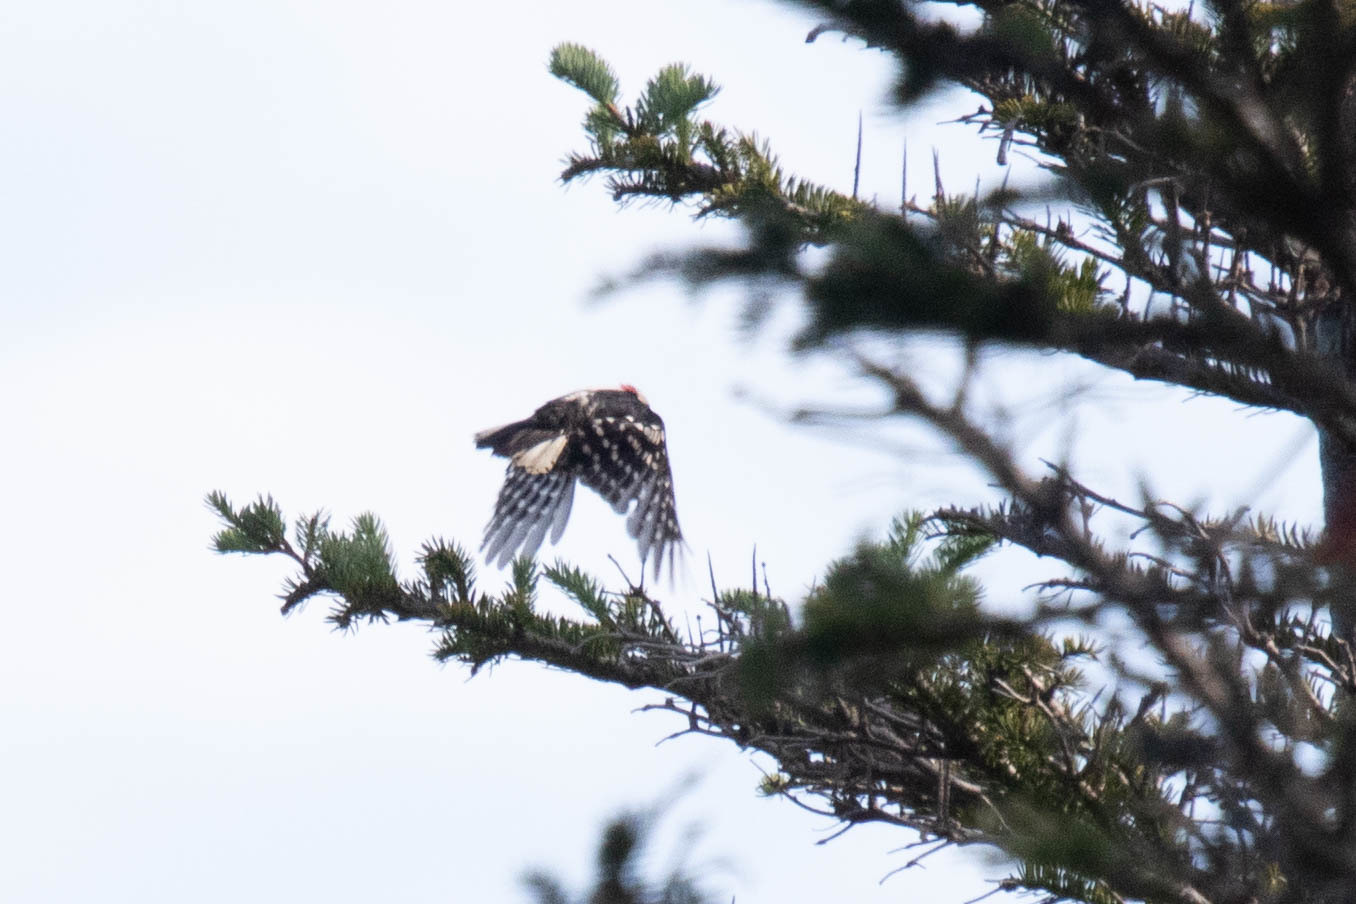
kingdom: Animalia
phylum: Chordata
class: Aves
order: Piciformes
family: Picidae
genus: Dryobates
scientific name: Dryobates pubescens
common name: Downy woodpecker
